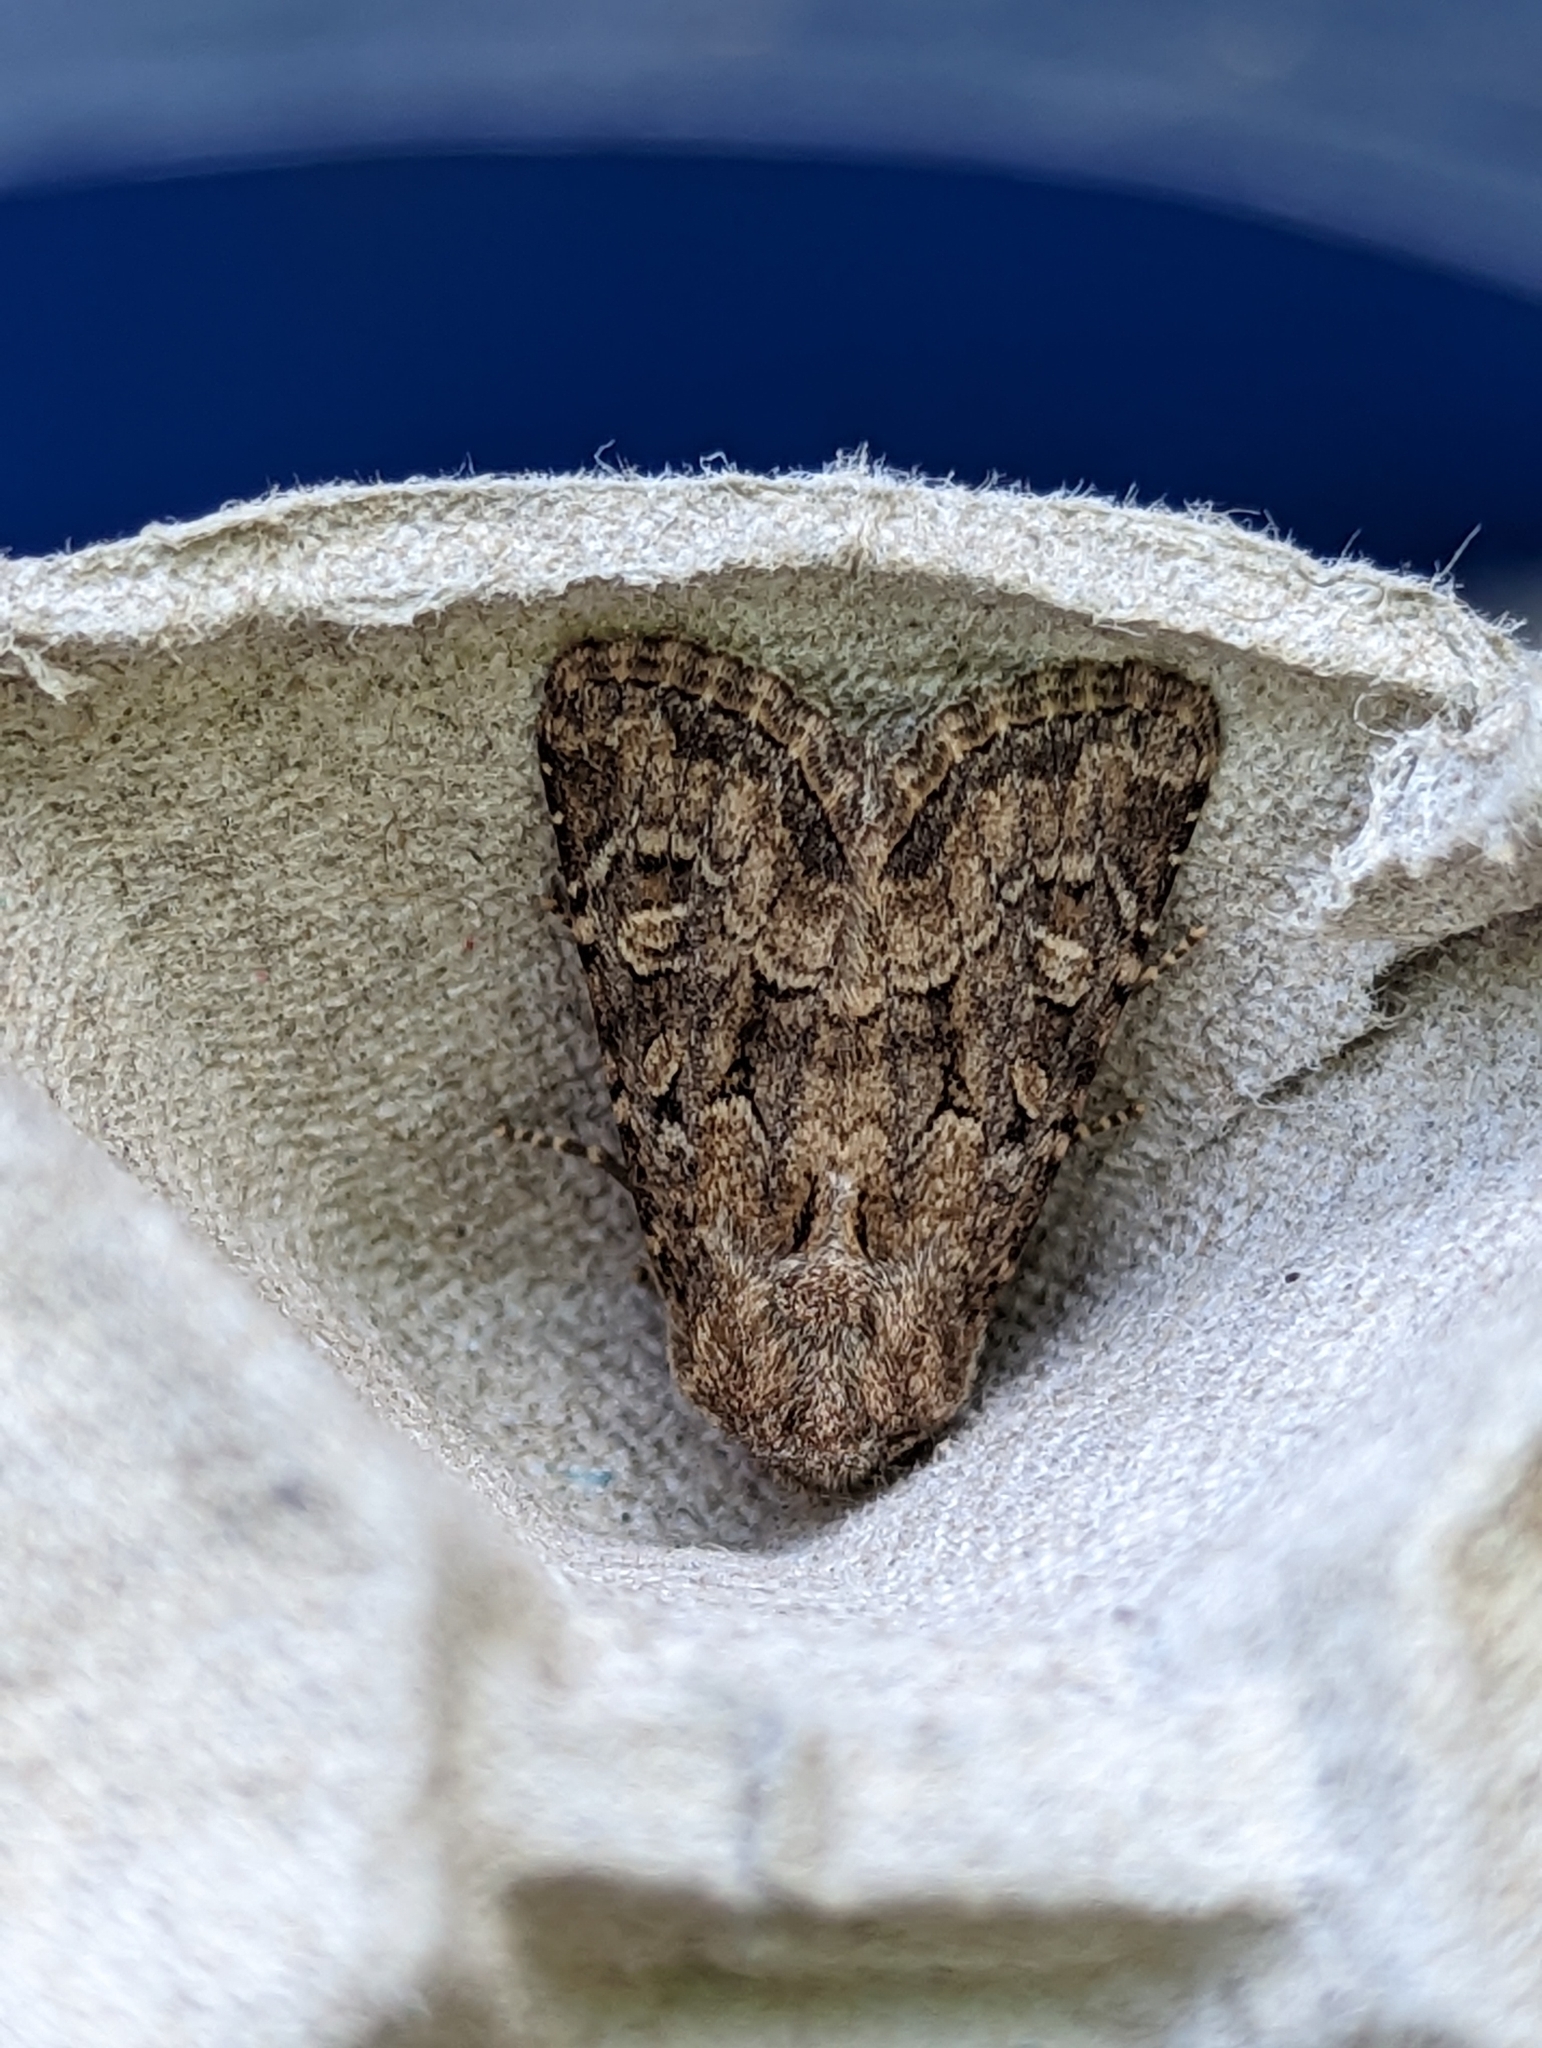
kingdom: Animalia
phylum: Arthropoda
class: Insecta
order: Lepidoptera
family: Noctuidae
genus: Luperina
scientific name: Luperina testacea
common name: Flounced rustic
